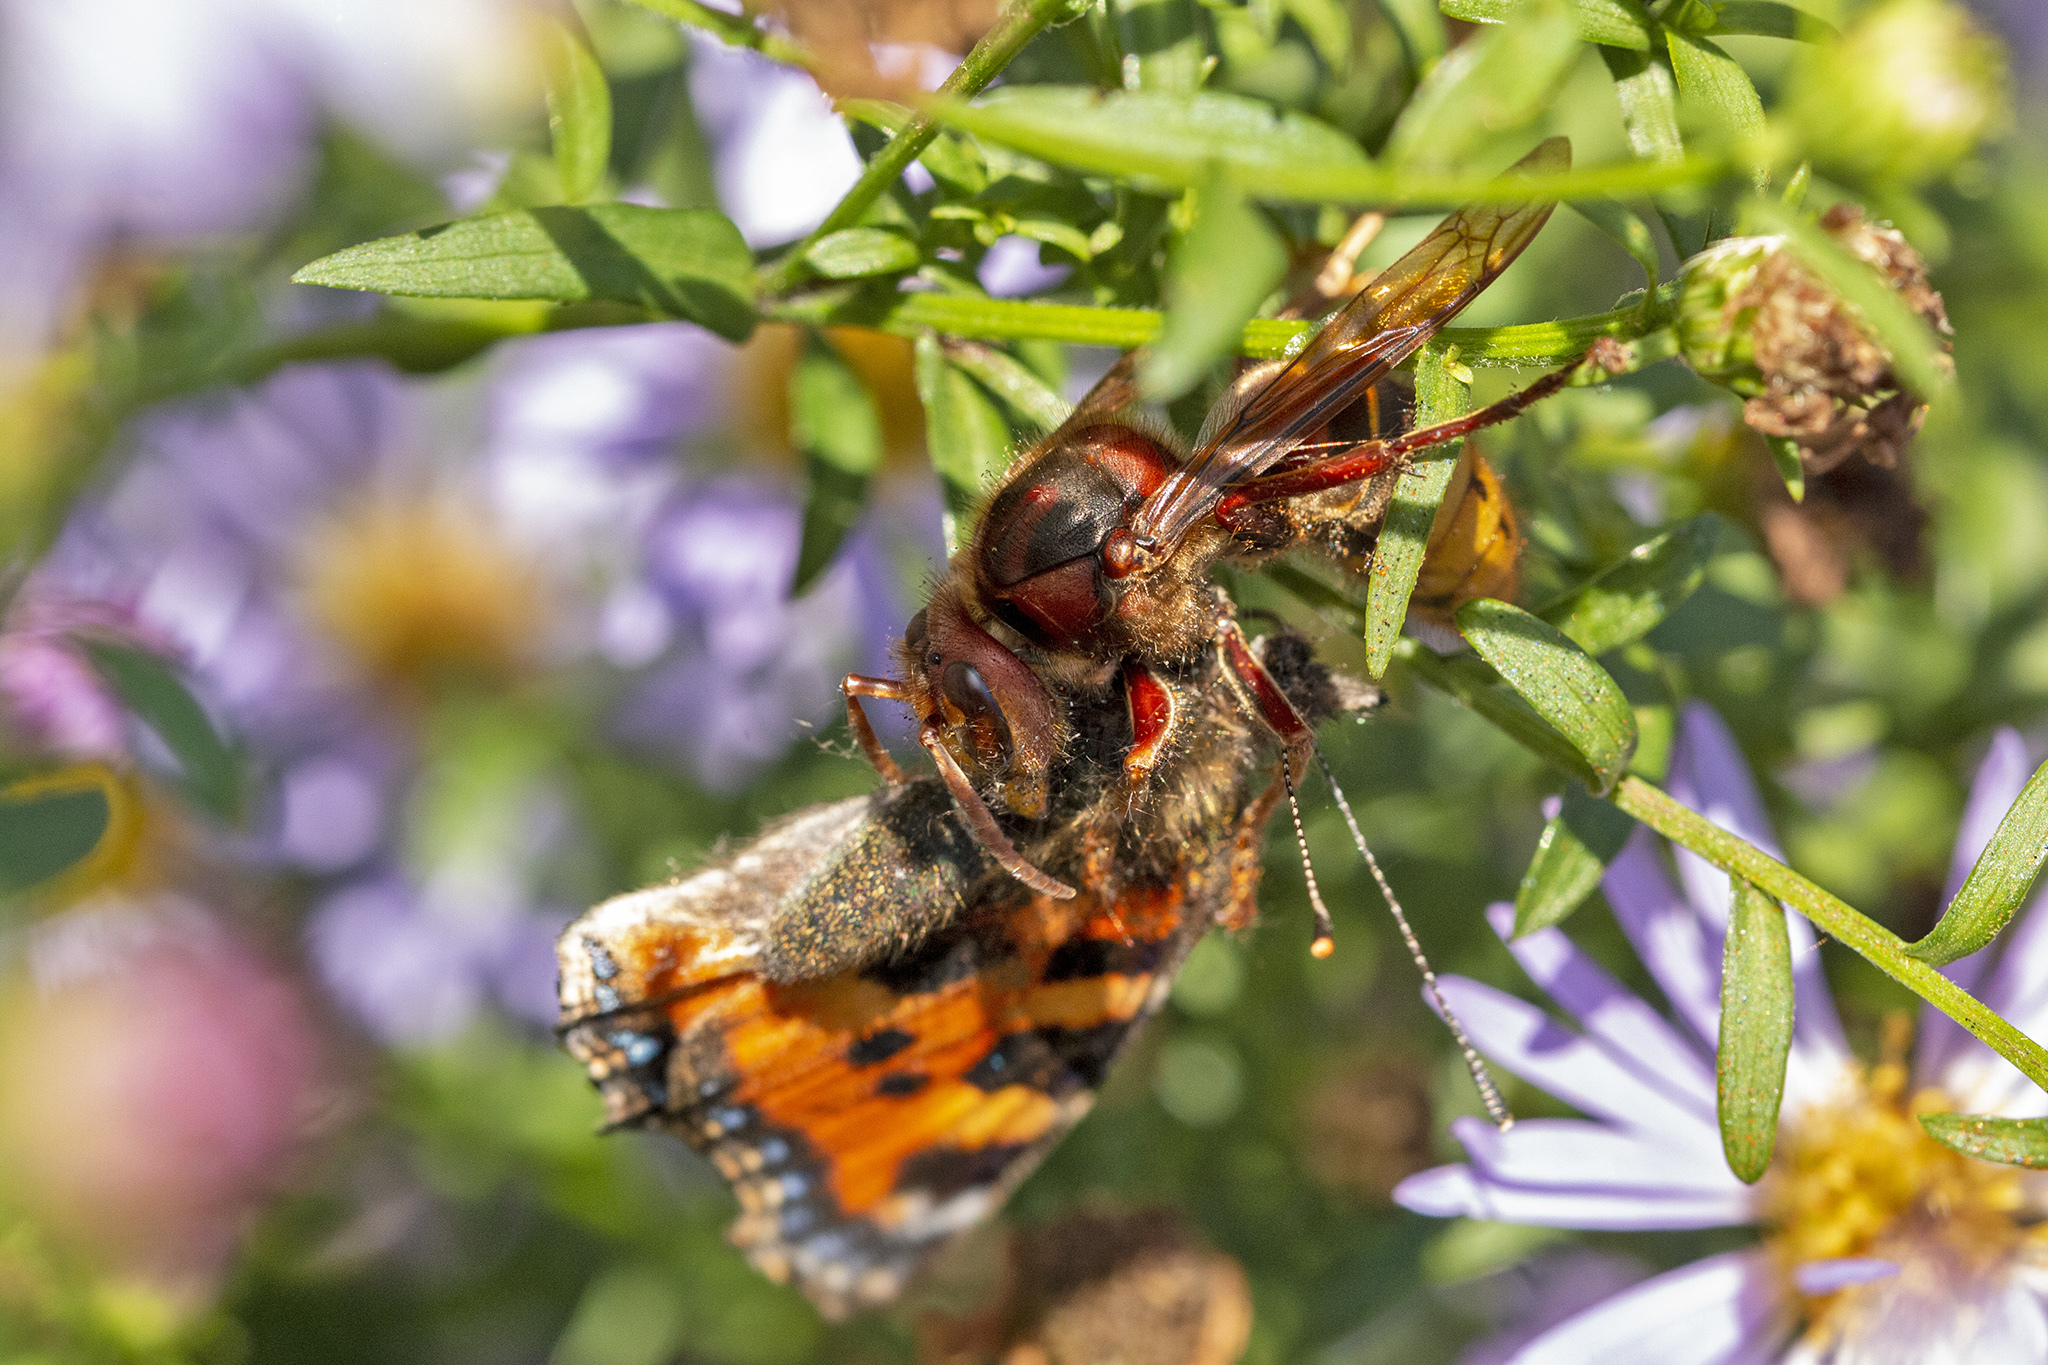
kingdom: Animalia
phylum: Arthropoda
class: Insecta
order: Hymenoptera
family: Vespidae
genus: Vespa
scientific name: Vespa crabro
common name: Hornet
